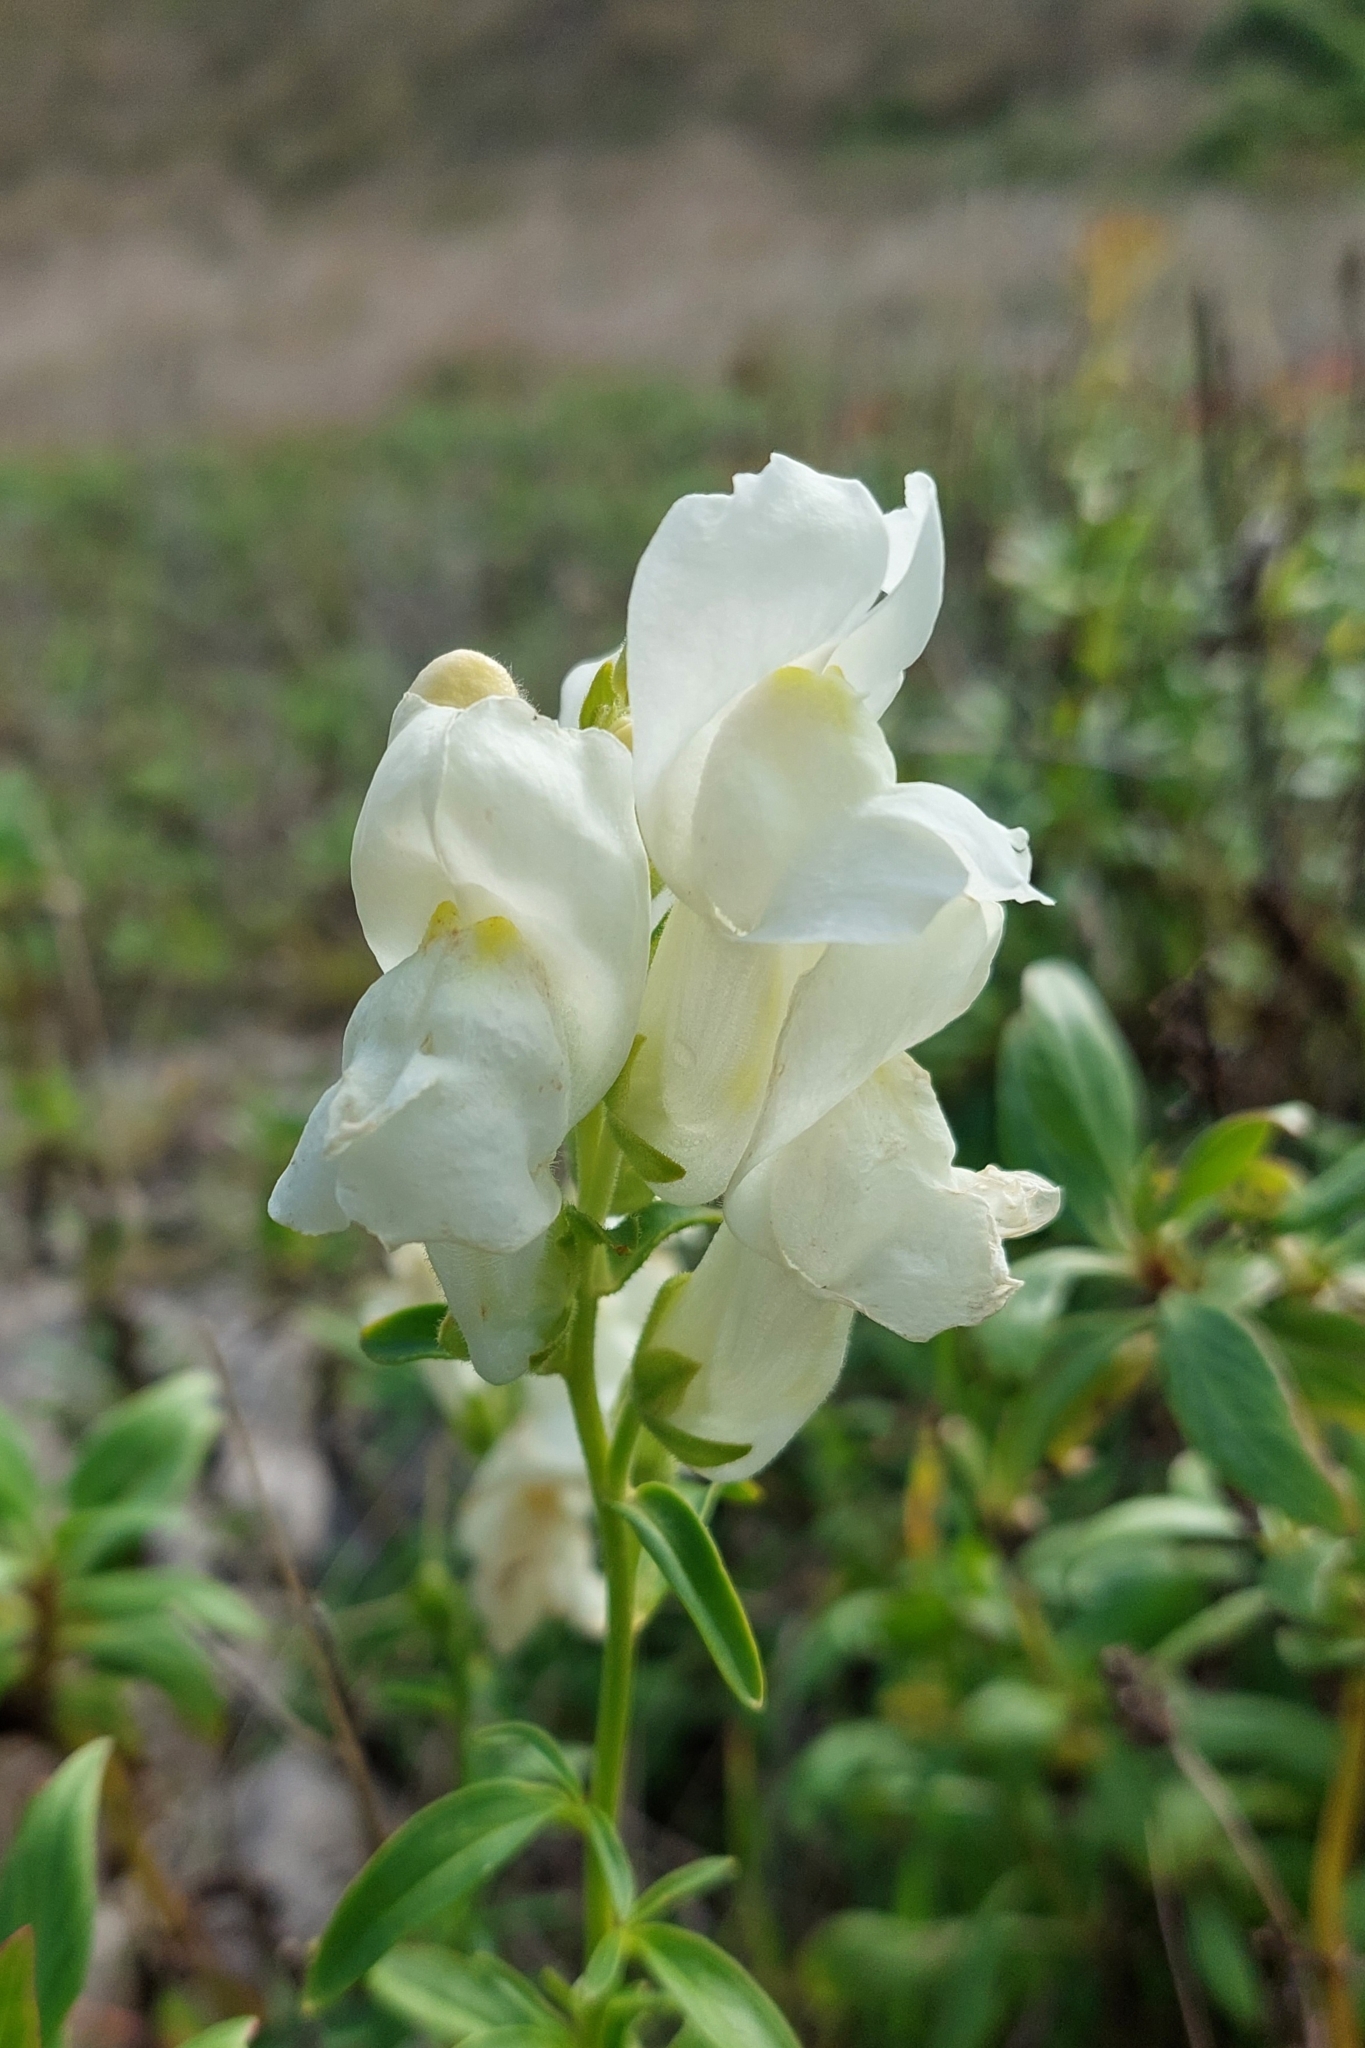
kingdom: Plantae
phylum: Tracheophyta
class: Magnoliopsida
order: Lamiales
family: Plantaginaceae
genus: Antirrhinum
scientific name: Antirrhinum majus
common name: Snapdragon
